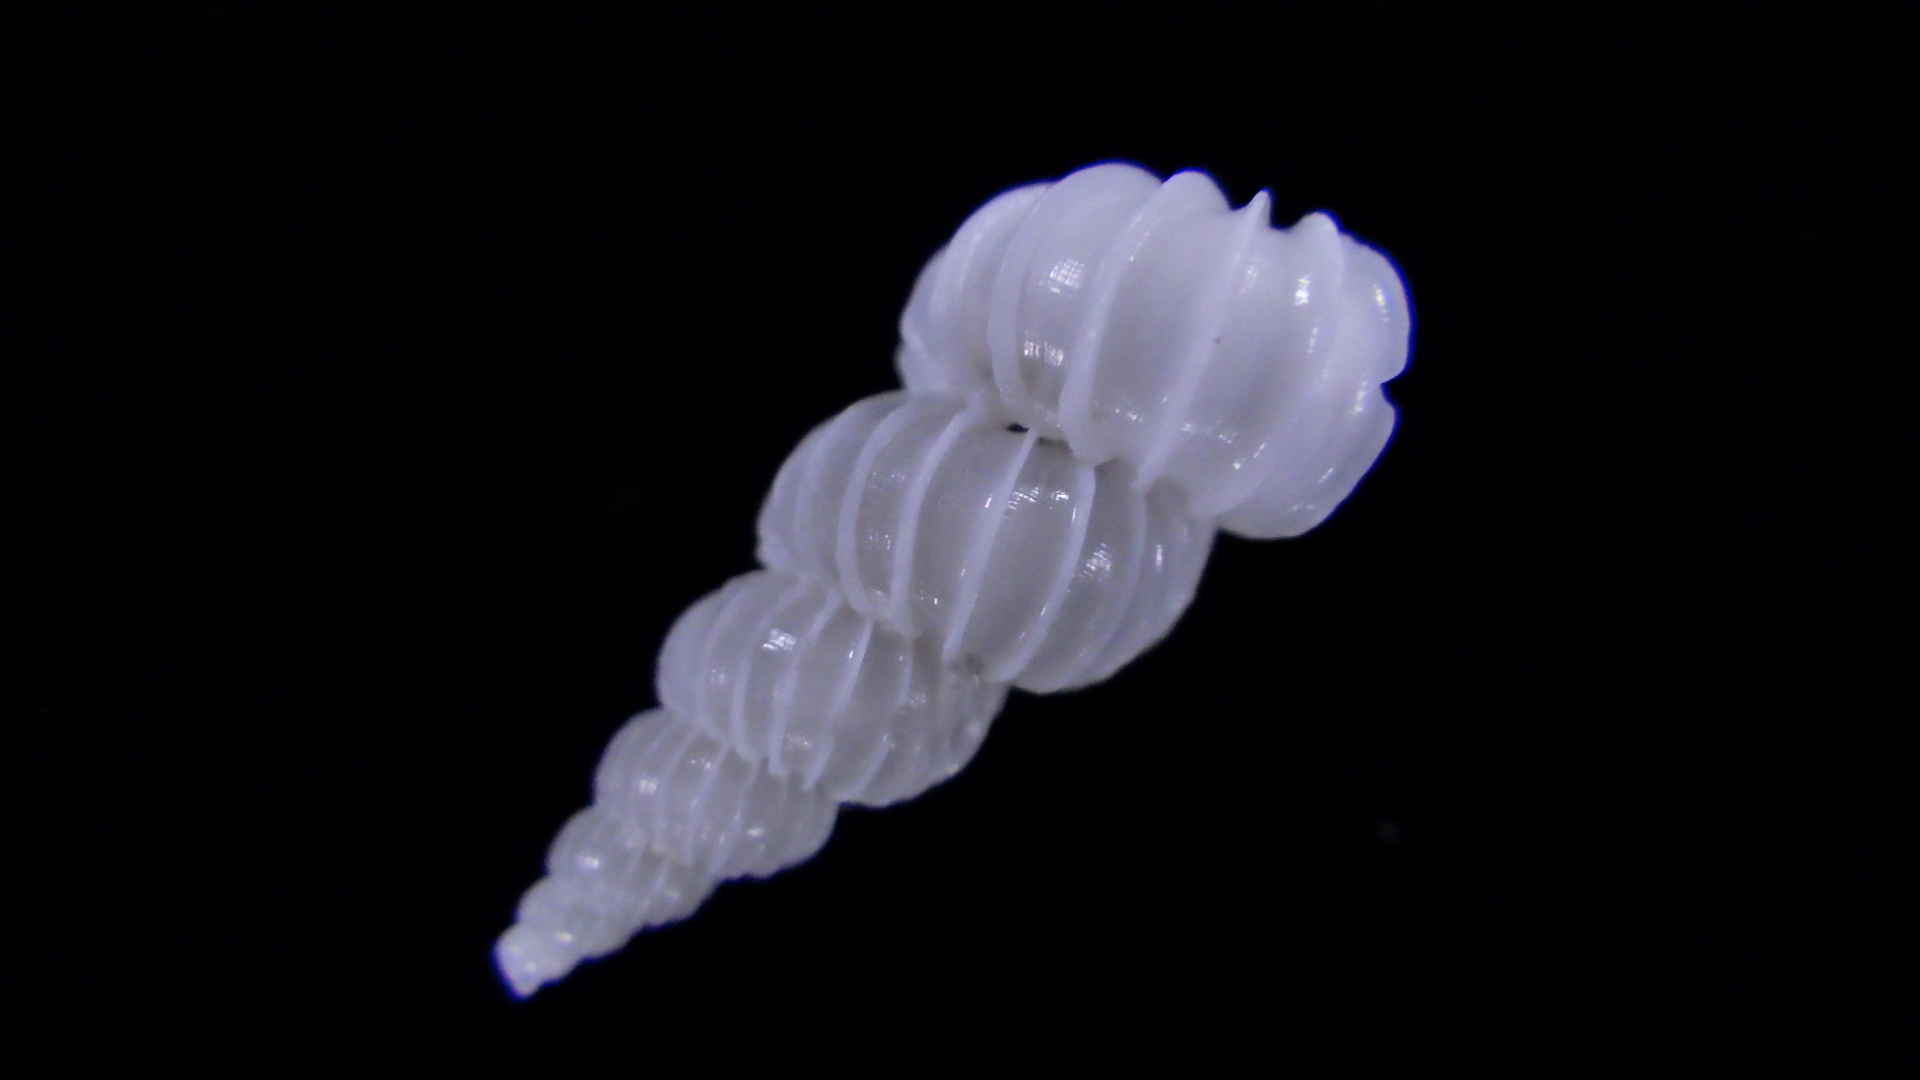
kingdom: Animalia
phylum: Mollusca
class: Gastropoda
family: Epitoniidae
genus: Epitonium
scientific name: Epitonium bucknilli
